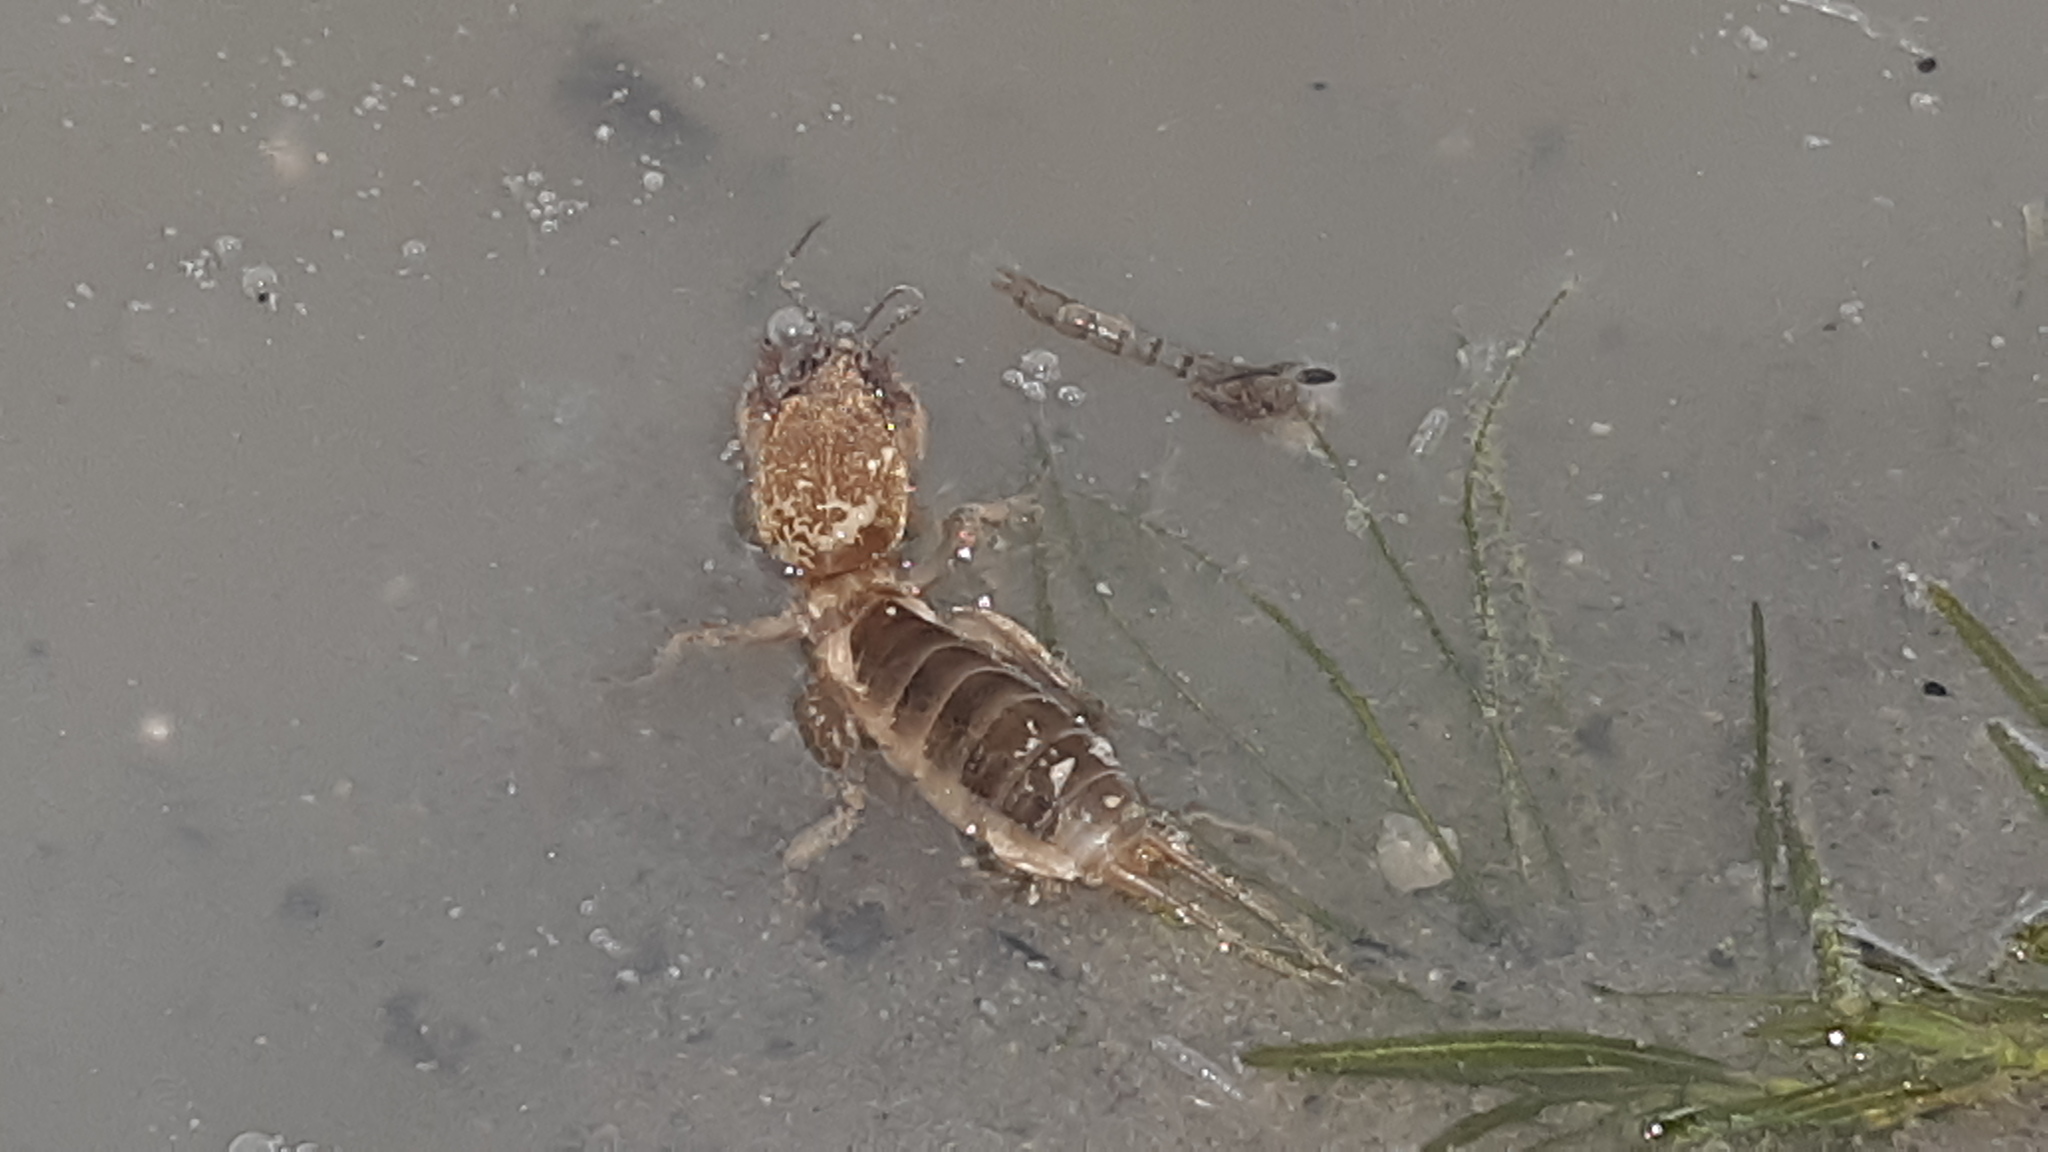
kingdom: Animalia
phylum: Arthropoda
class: Insecta
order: Orthoptera
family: Gryllotalpidae
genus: Neocurtilla
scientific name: Neocurtilla hexadactyla
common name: Northern mole cricket
